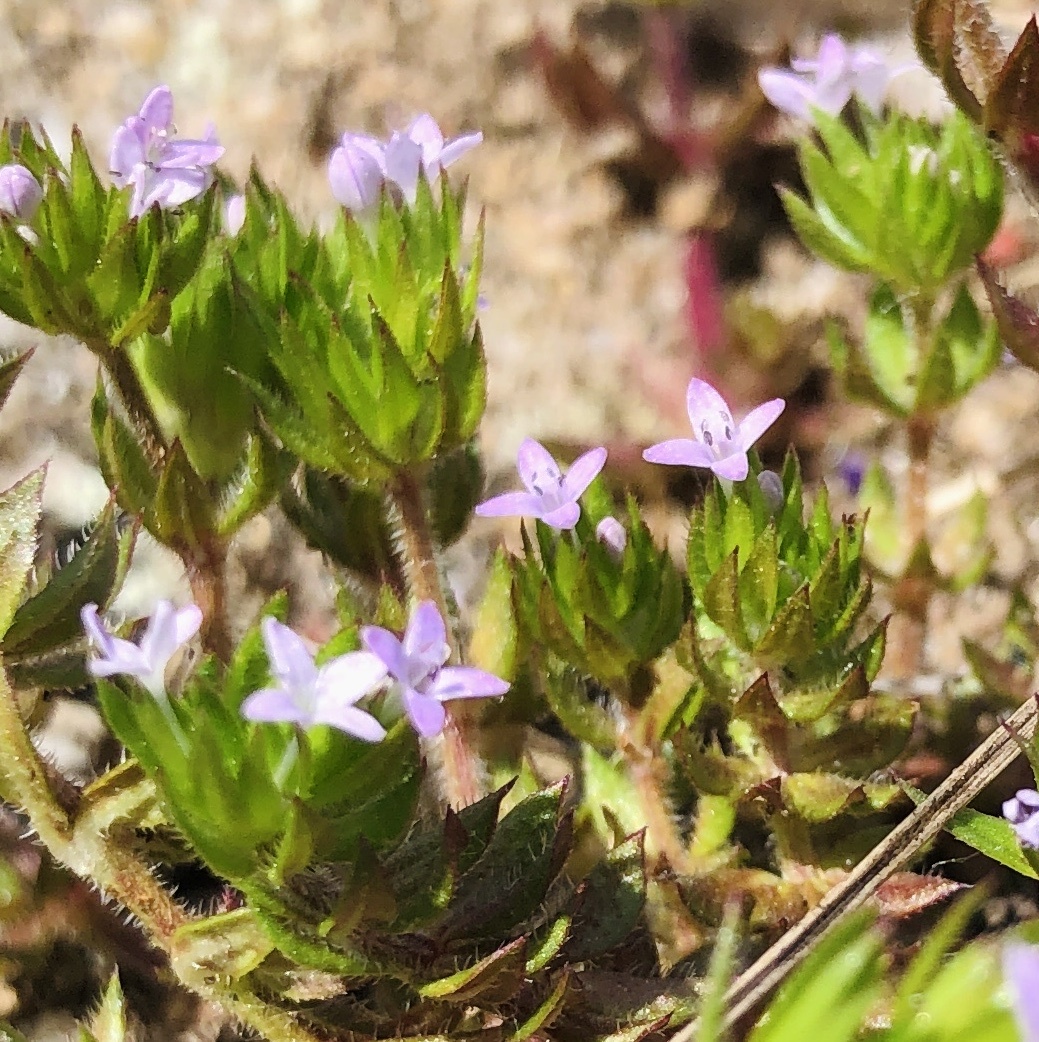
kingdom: Plantae
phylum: Tracheophyta
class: Magnoliopsida
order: Gentianales
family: Rubiaceae
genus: Sherardia
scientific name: Sherardia arvensis
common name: Field madder
